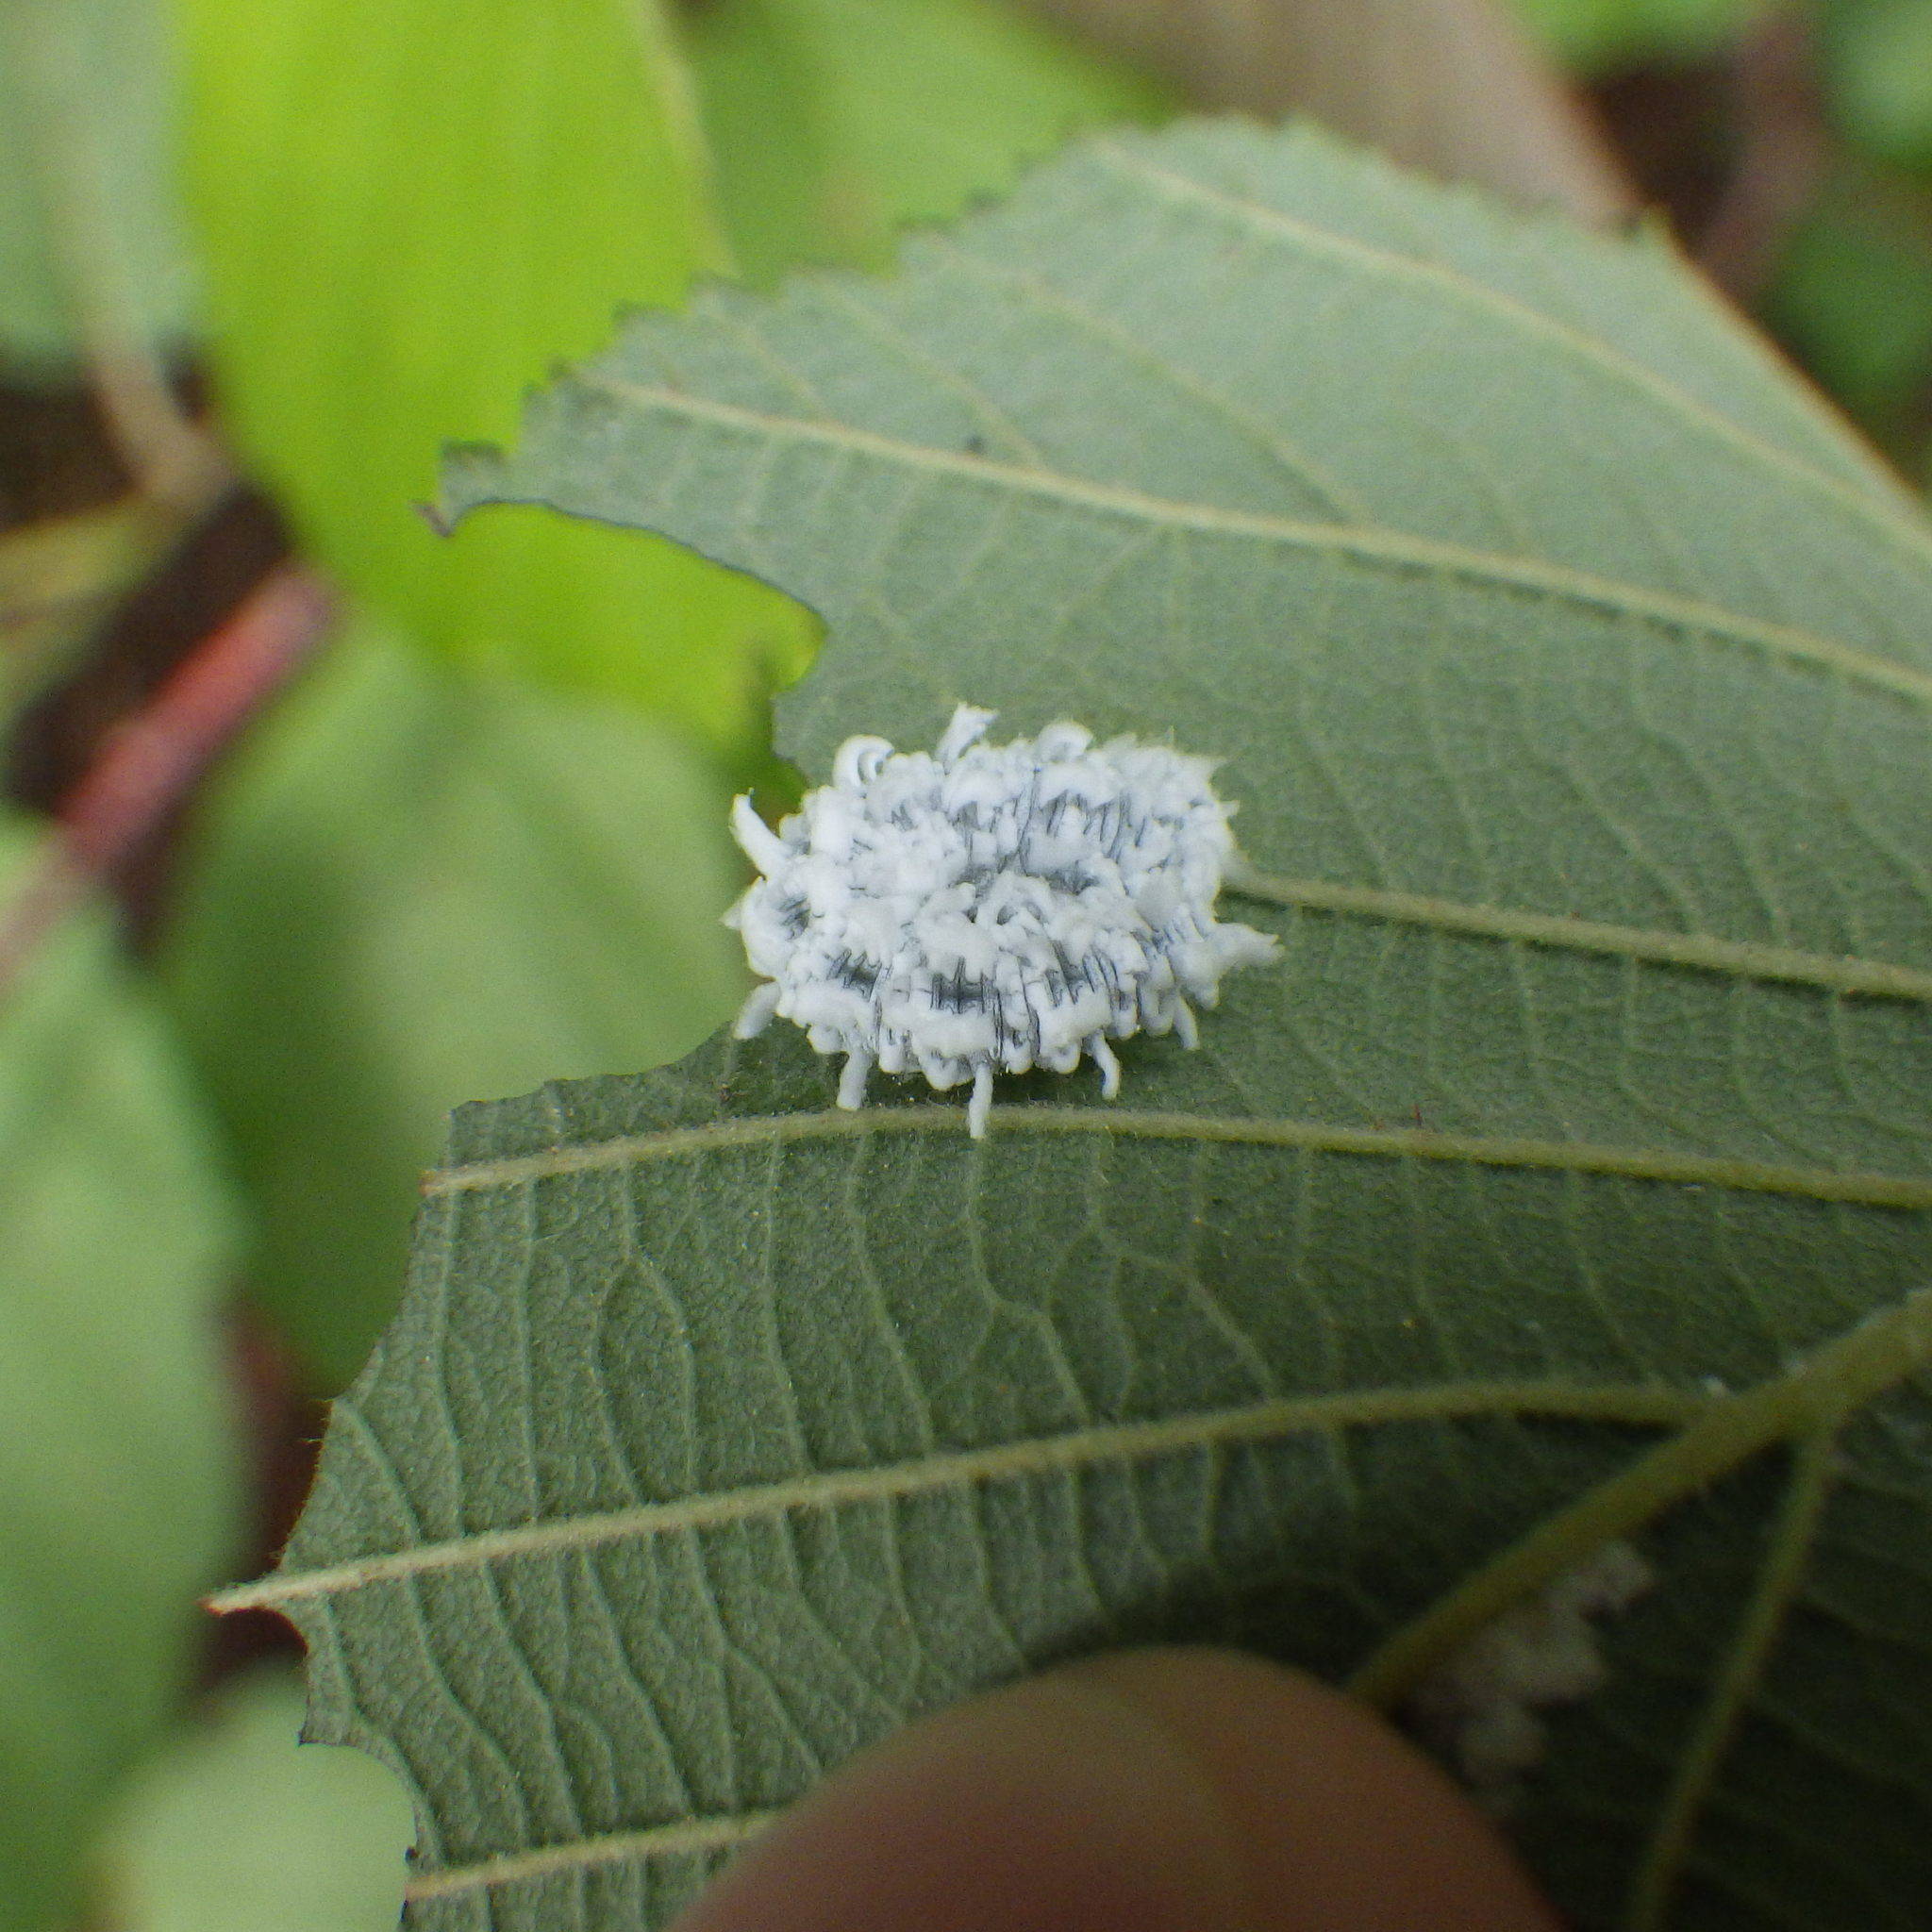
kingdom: Animalia
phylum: Arthropoda
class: Insecta
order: Hymenoptera
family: Tenthredinidae
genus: Eriocampa
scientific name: Eriocampa ovata
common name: Alder wooly sawfly
